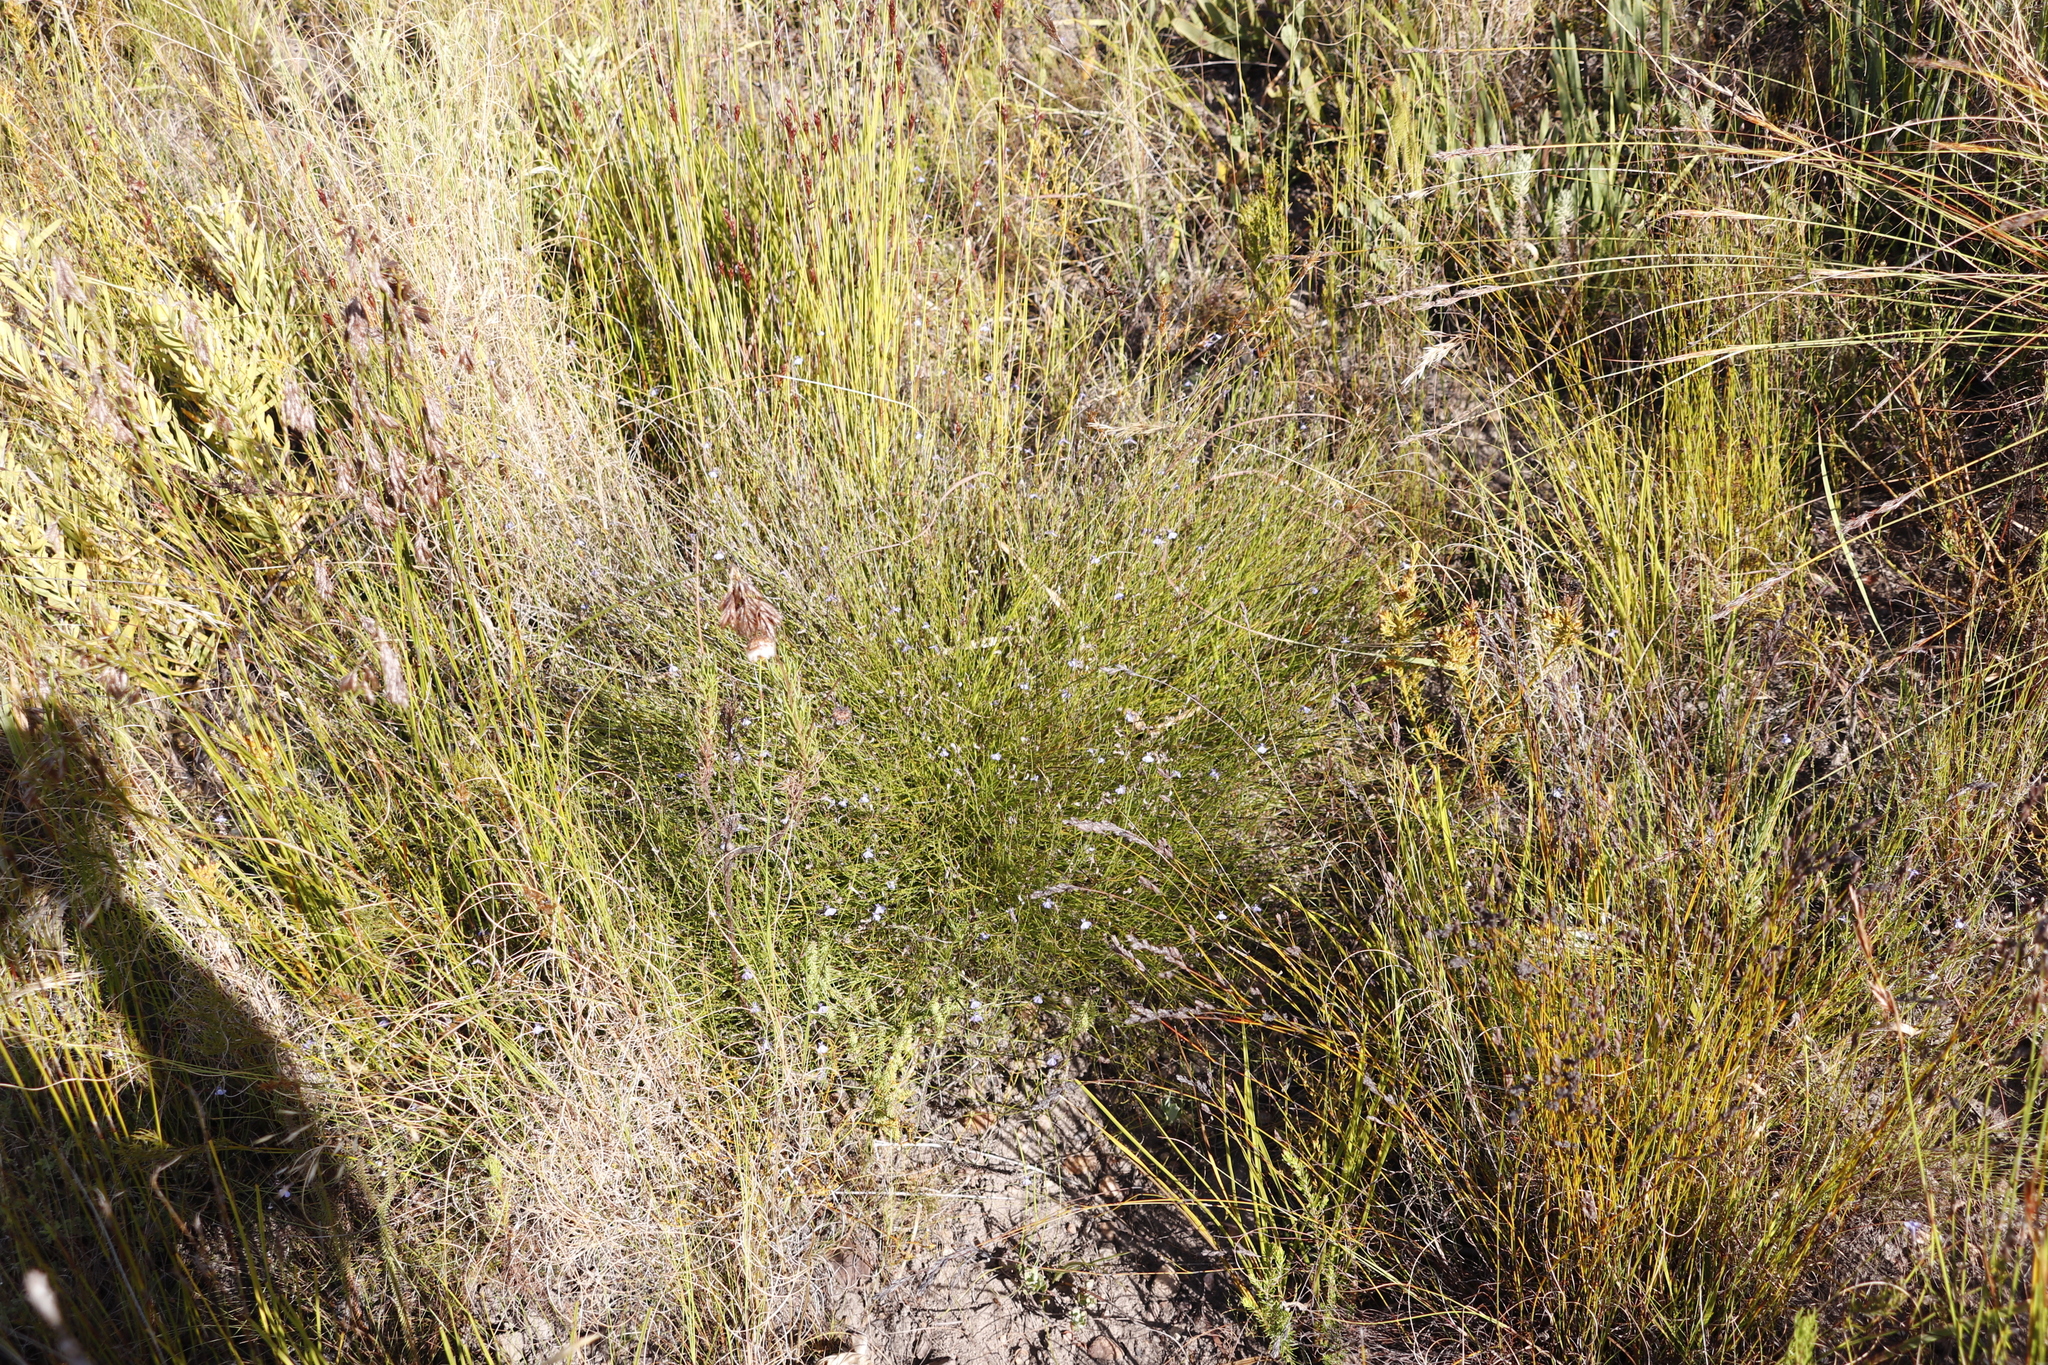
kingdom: Plantae
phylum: Tracheophyta
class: Magnoliopsida
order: Asterales
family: Campanulaceae
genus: Lobelia
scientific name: Lobelia capillifolia
